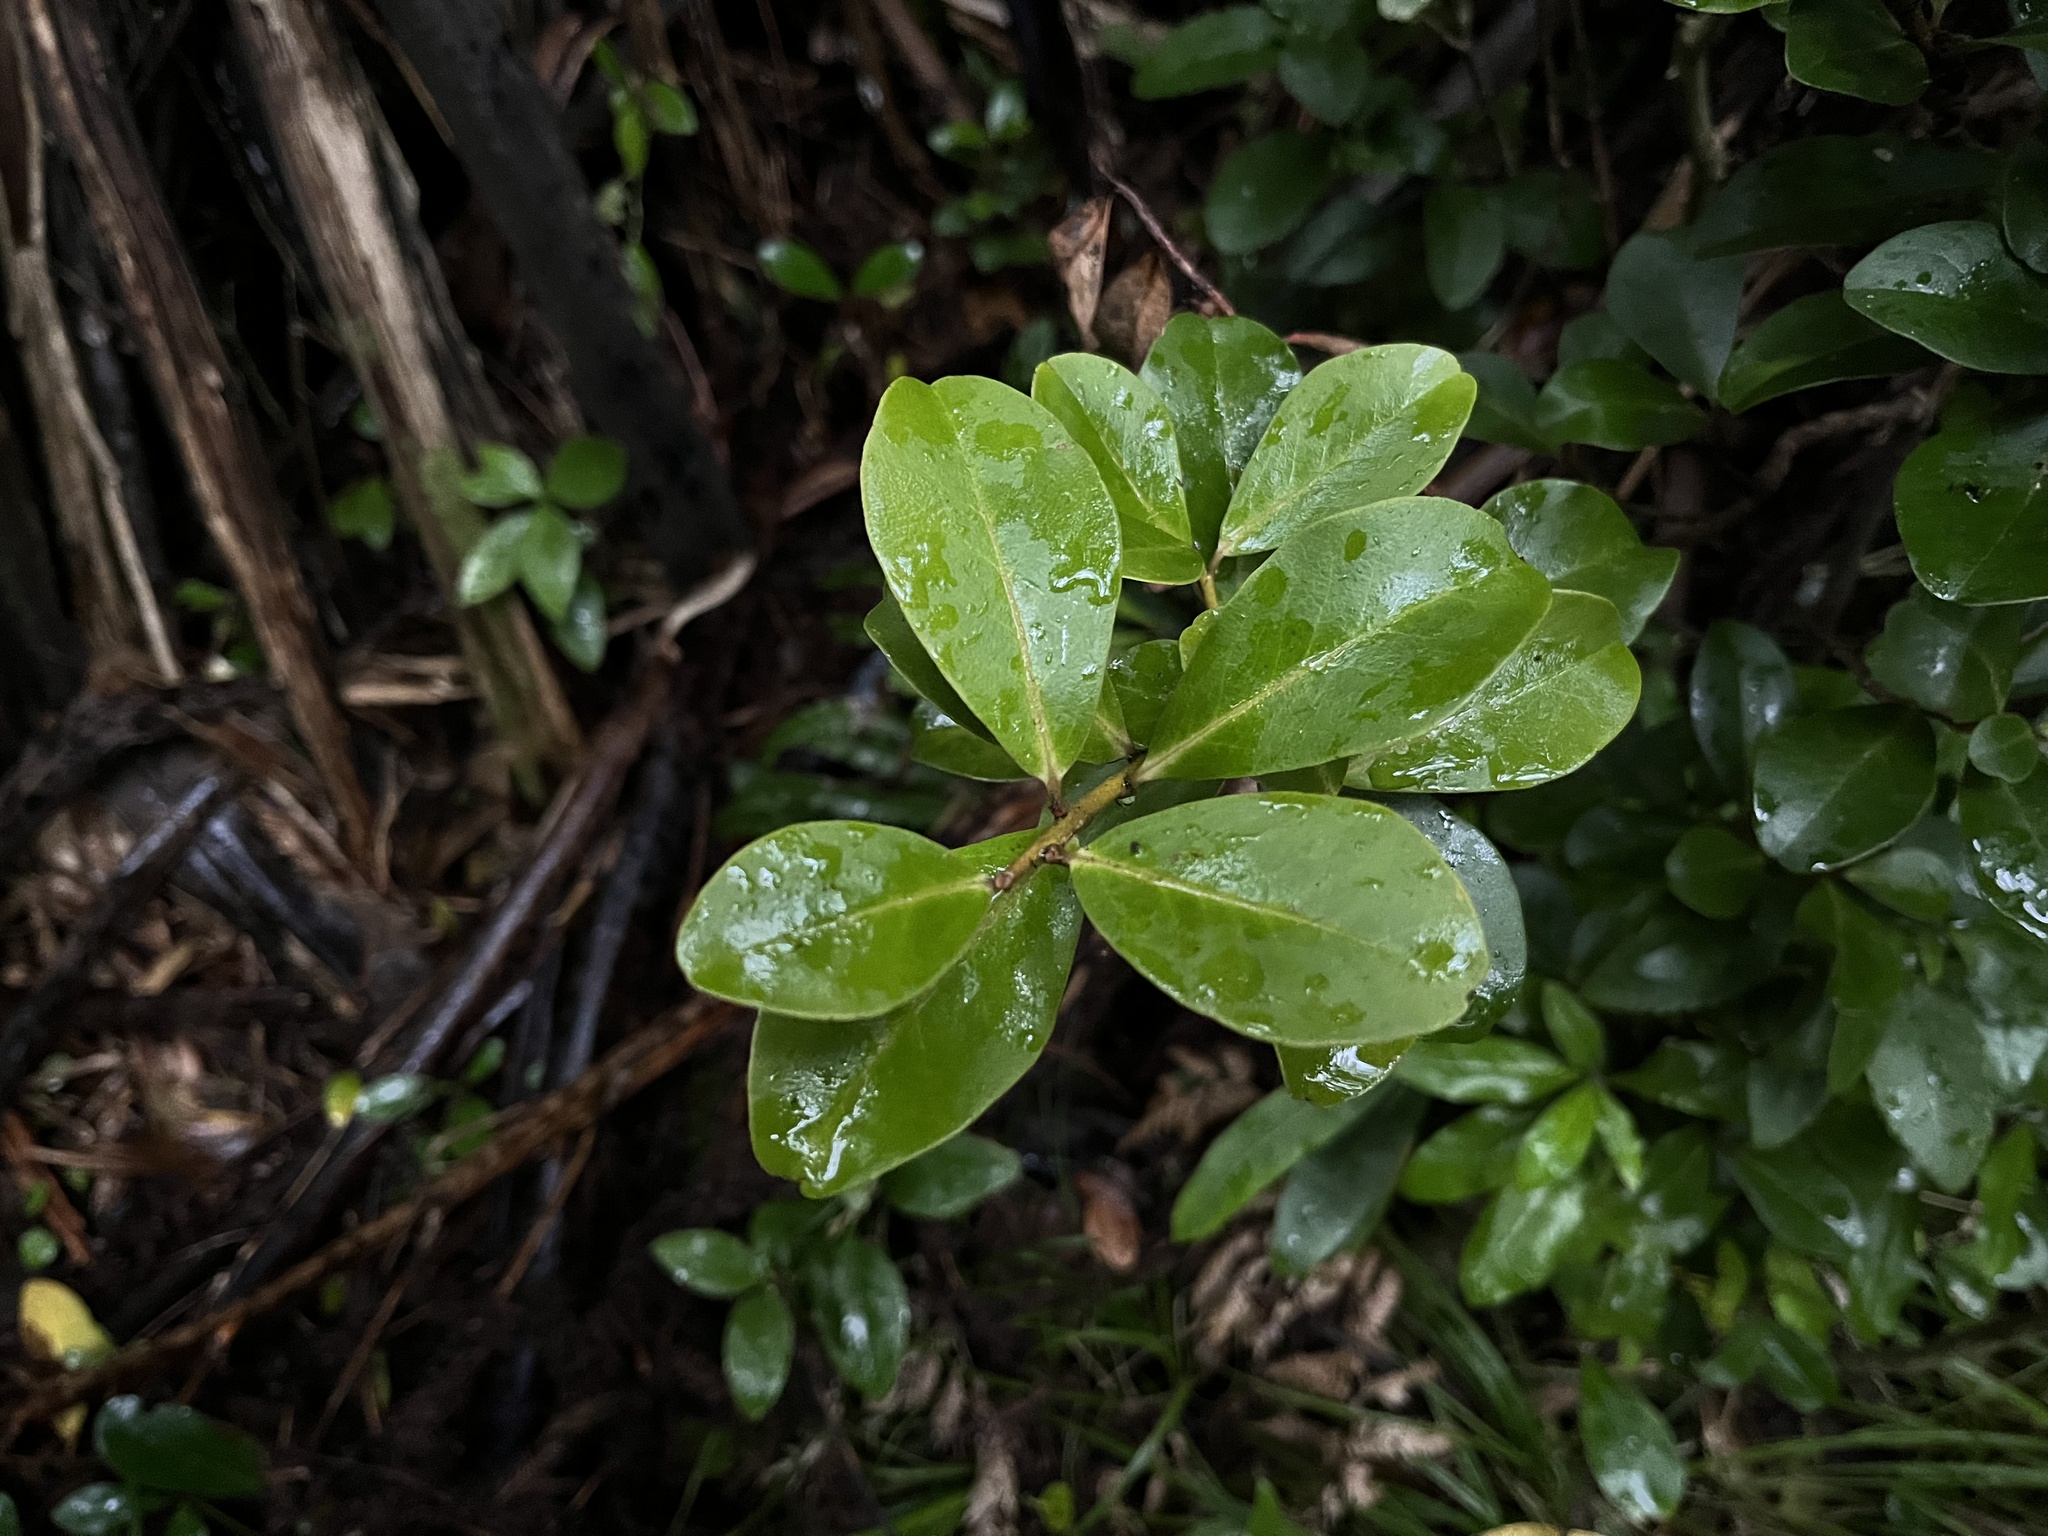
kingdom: Plantae
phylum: Tracheophyta
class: Magnoliopsida
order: Ericales
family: Primulaceae
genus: Myrsine
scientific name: Myrsine chathamica
